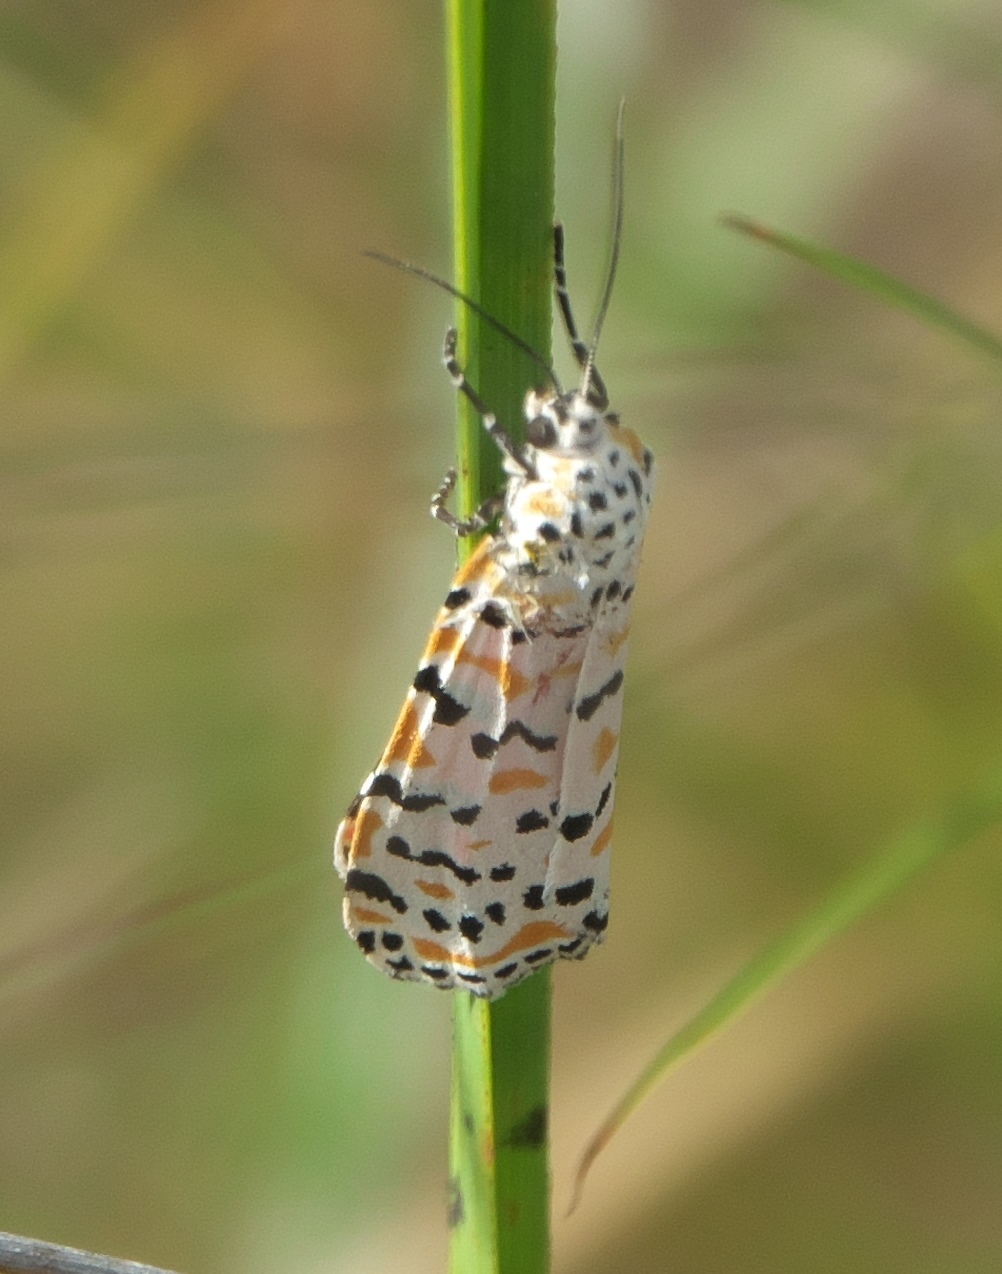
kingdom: Animalia
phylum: Arthropoda
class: Insecta
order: Lepidoptera
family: Erebidae
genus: Utetheisa
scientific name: Utetheisa ornatrix
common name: Beautiful utetheisa
